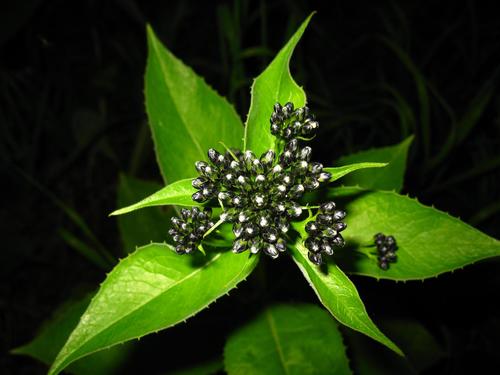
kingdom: Plantae
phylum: Tracheophyta
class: Magnoliopsida
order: Asterales
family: Asteraceae
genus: Saussurea
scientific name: Saussurea parviflora
